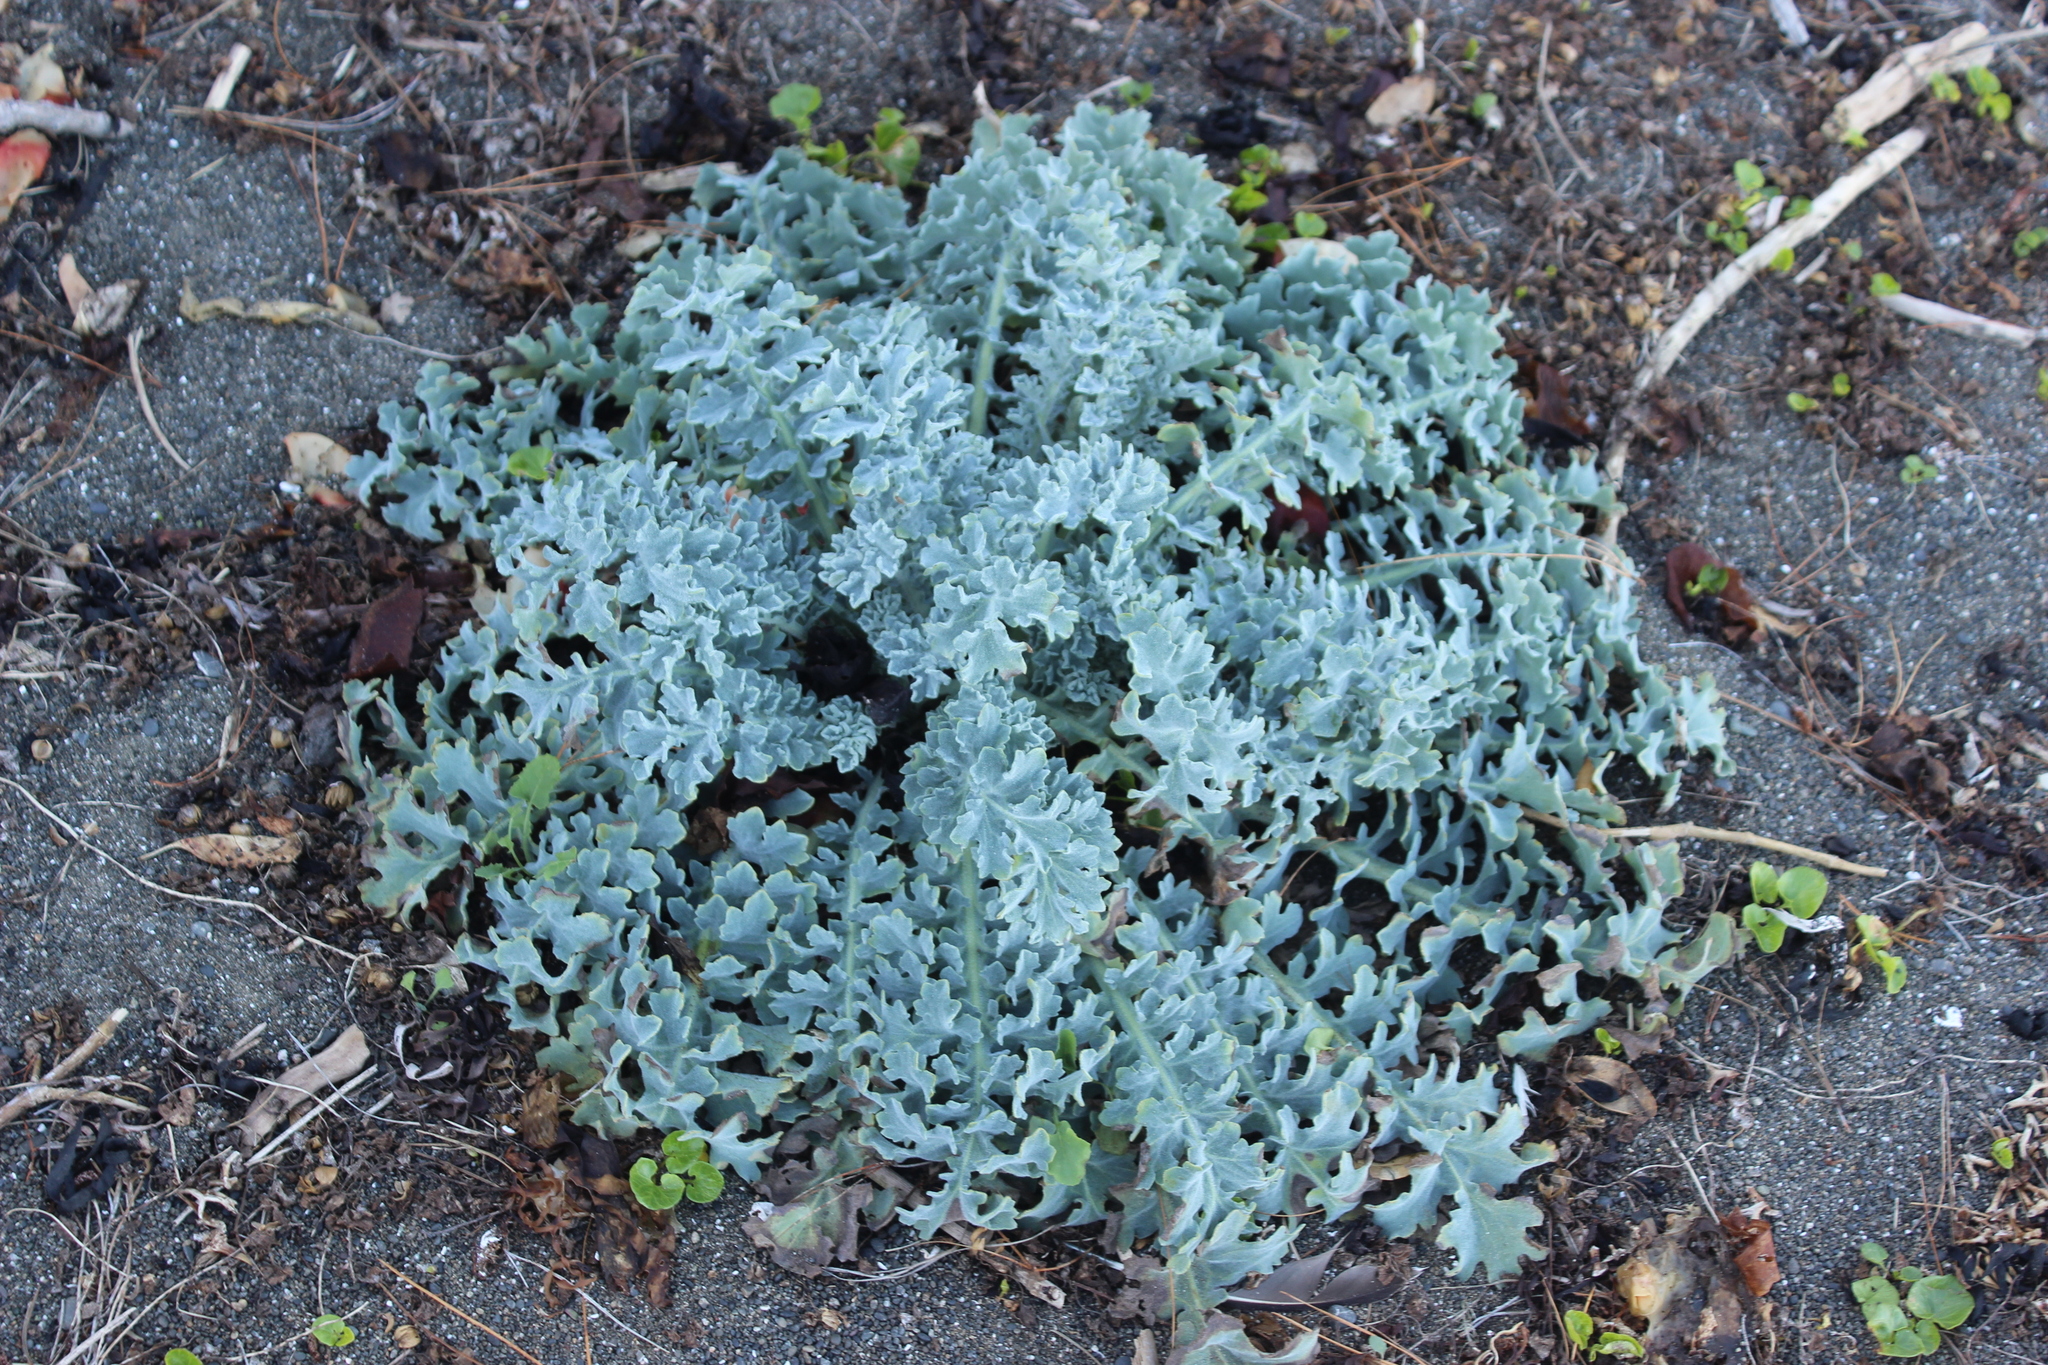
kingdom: Plantae
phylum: Tracheophyta
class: Magnoliopsida
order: Ranunculales
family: Papaveraceae
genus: Glaucium
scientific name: Glaucium flavum
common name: Yellow horned-poppy
